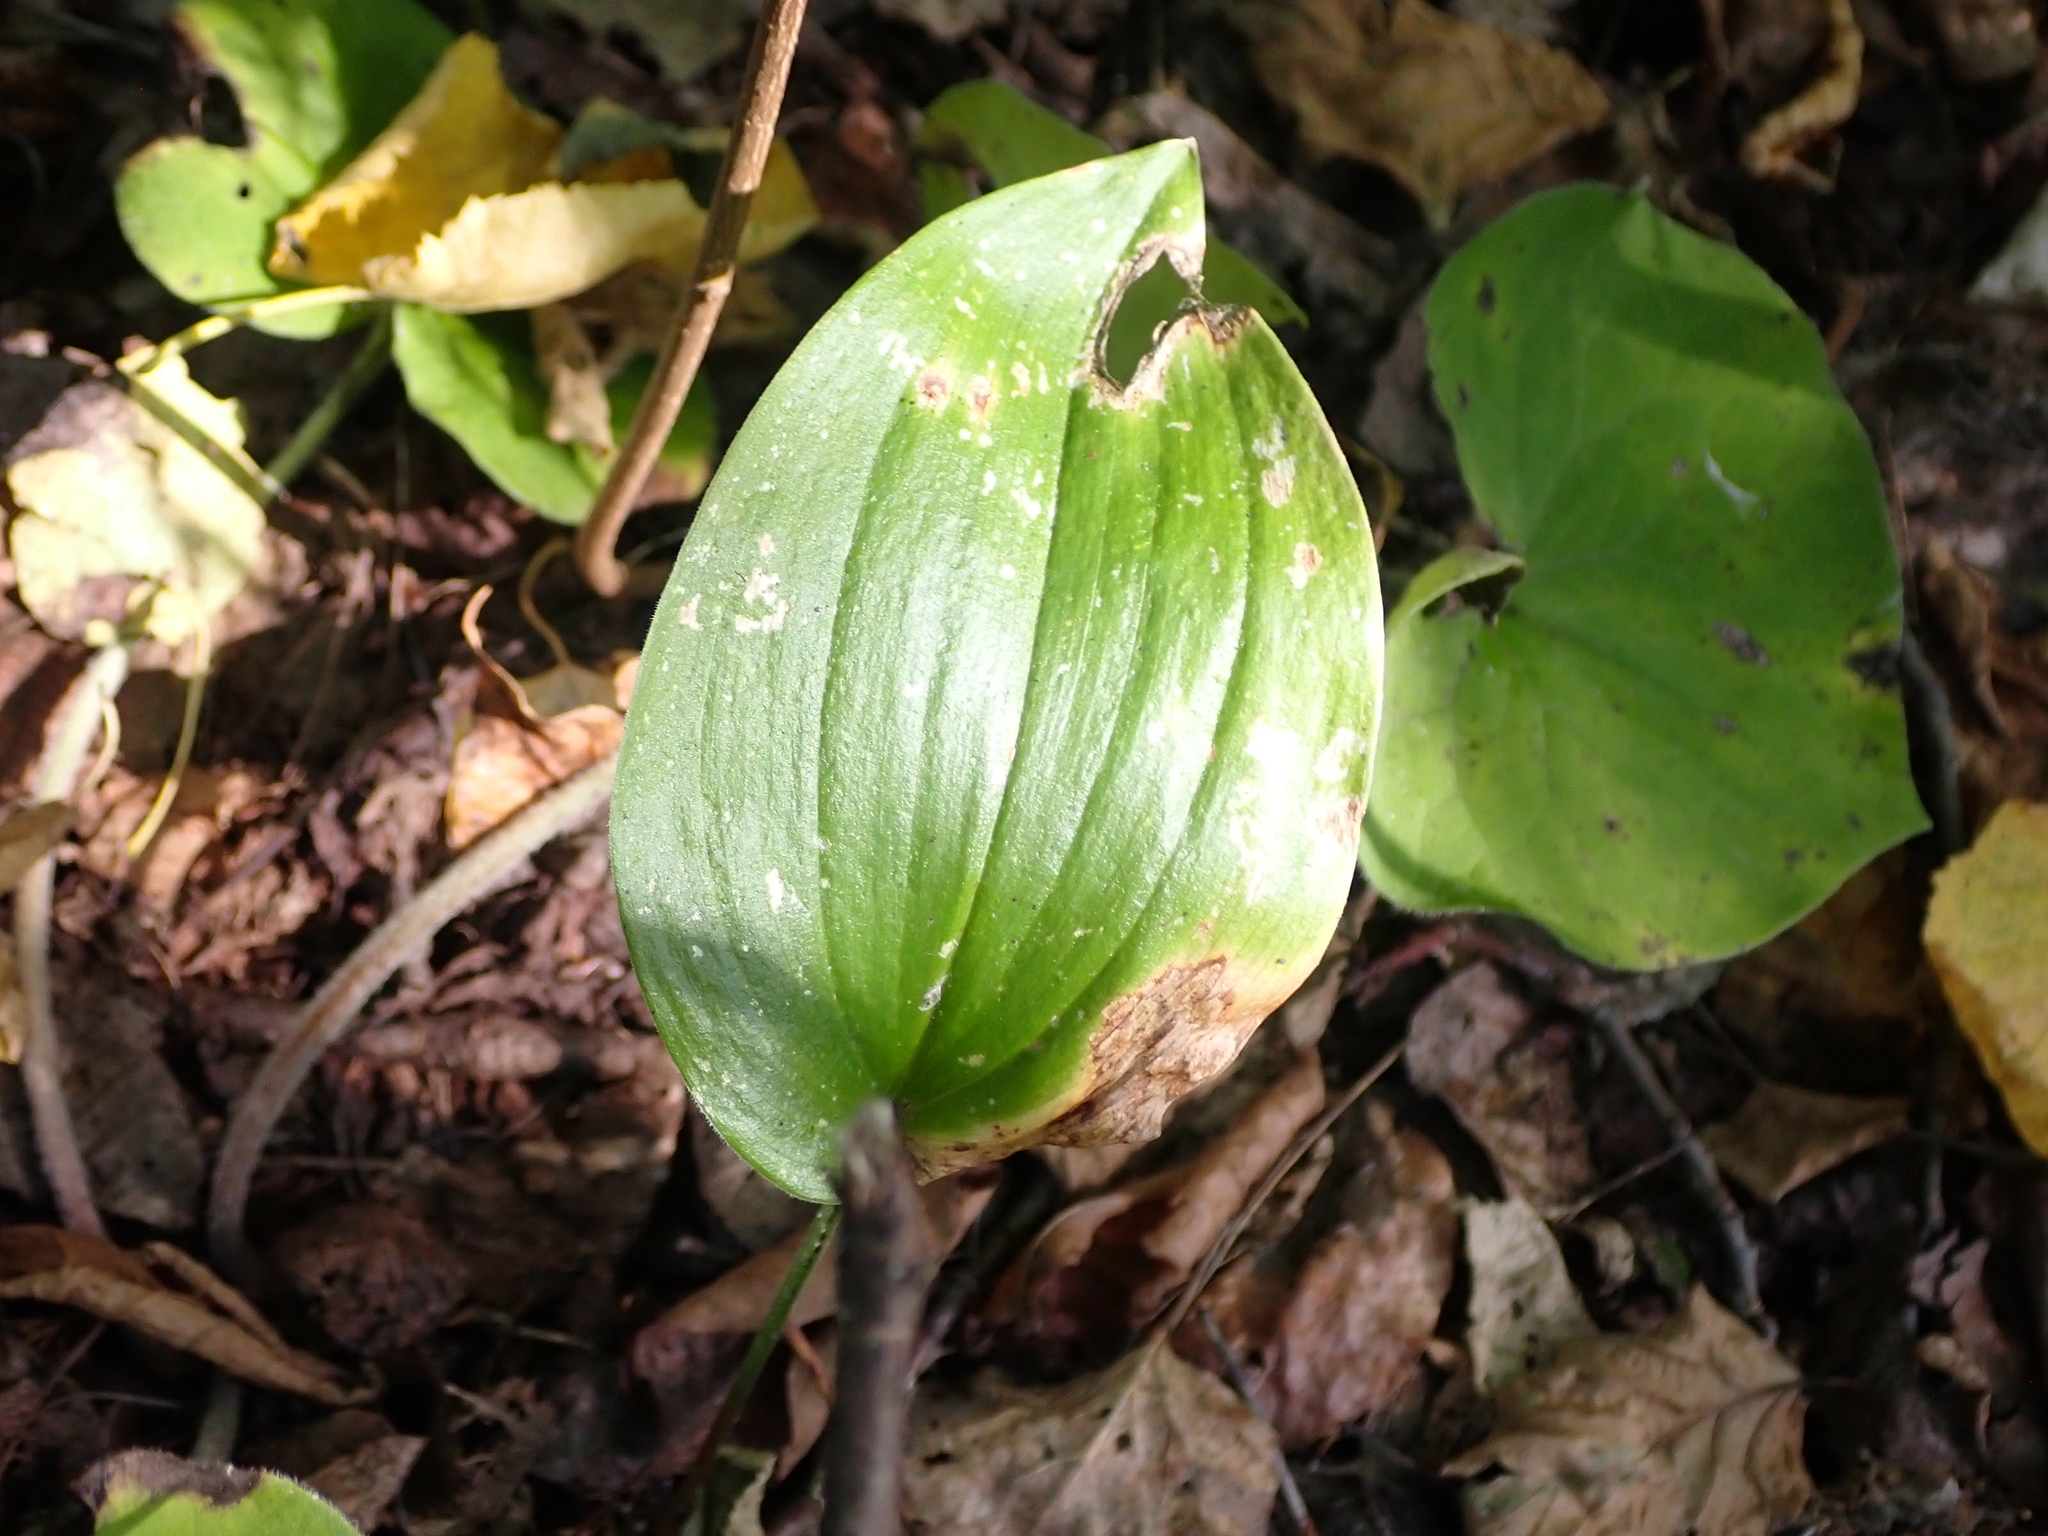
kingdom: Plantae
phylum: Tracheophyta
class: Liliopsida
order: Asparagales
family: Asparagaceae
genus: Maianthemum
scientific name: Maianthemum canadense
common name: False lily-of-the-valley
